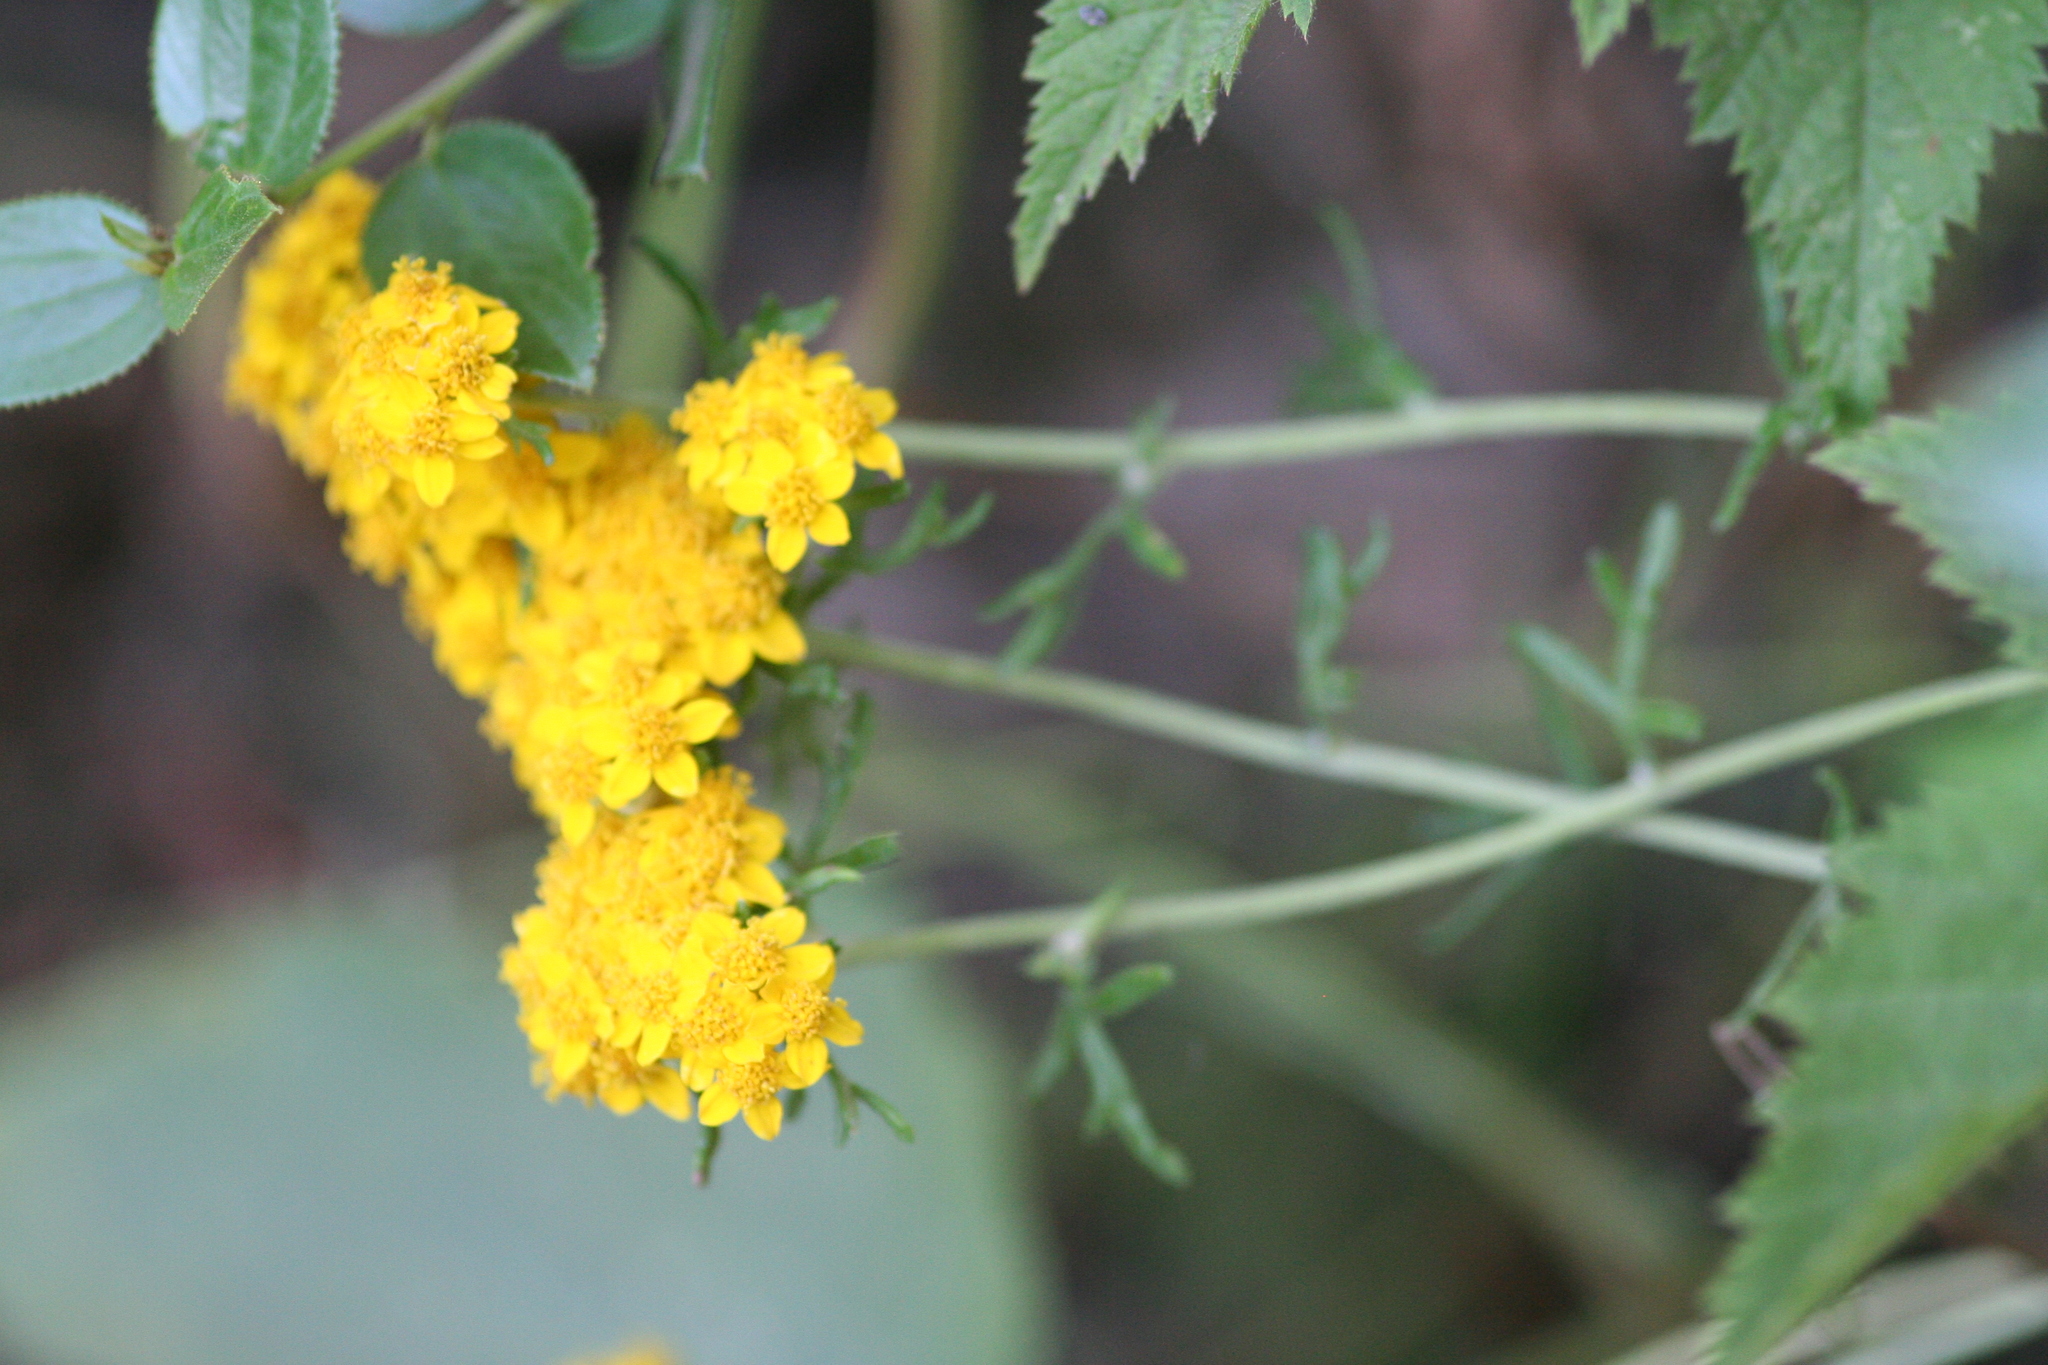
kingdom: Plantae
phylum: Tracheophyta
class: Magnoliopsida
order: Asterales
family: Asteraceae
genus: Eriophyllum
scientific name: Eriophyllum confertiflorum
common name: Golden-yarrow
